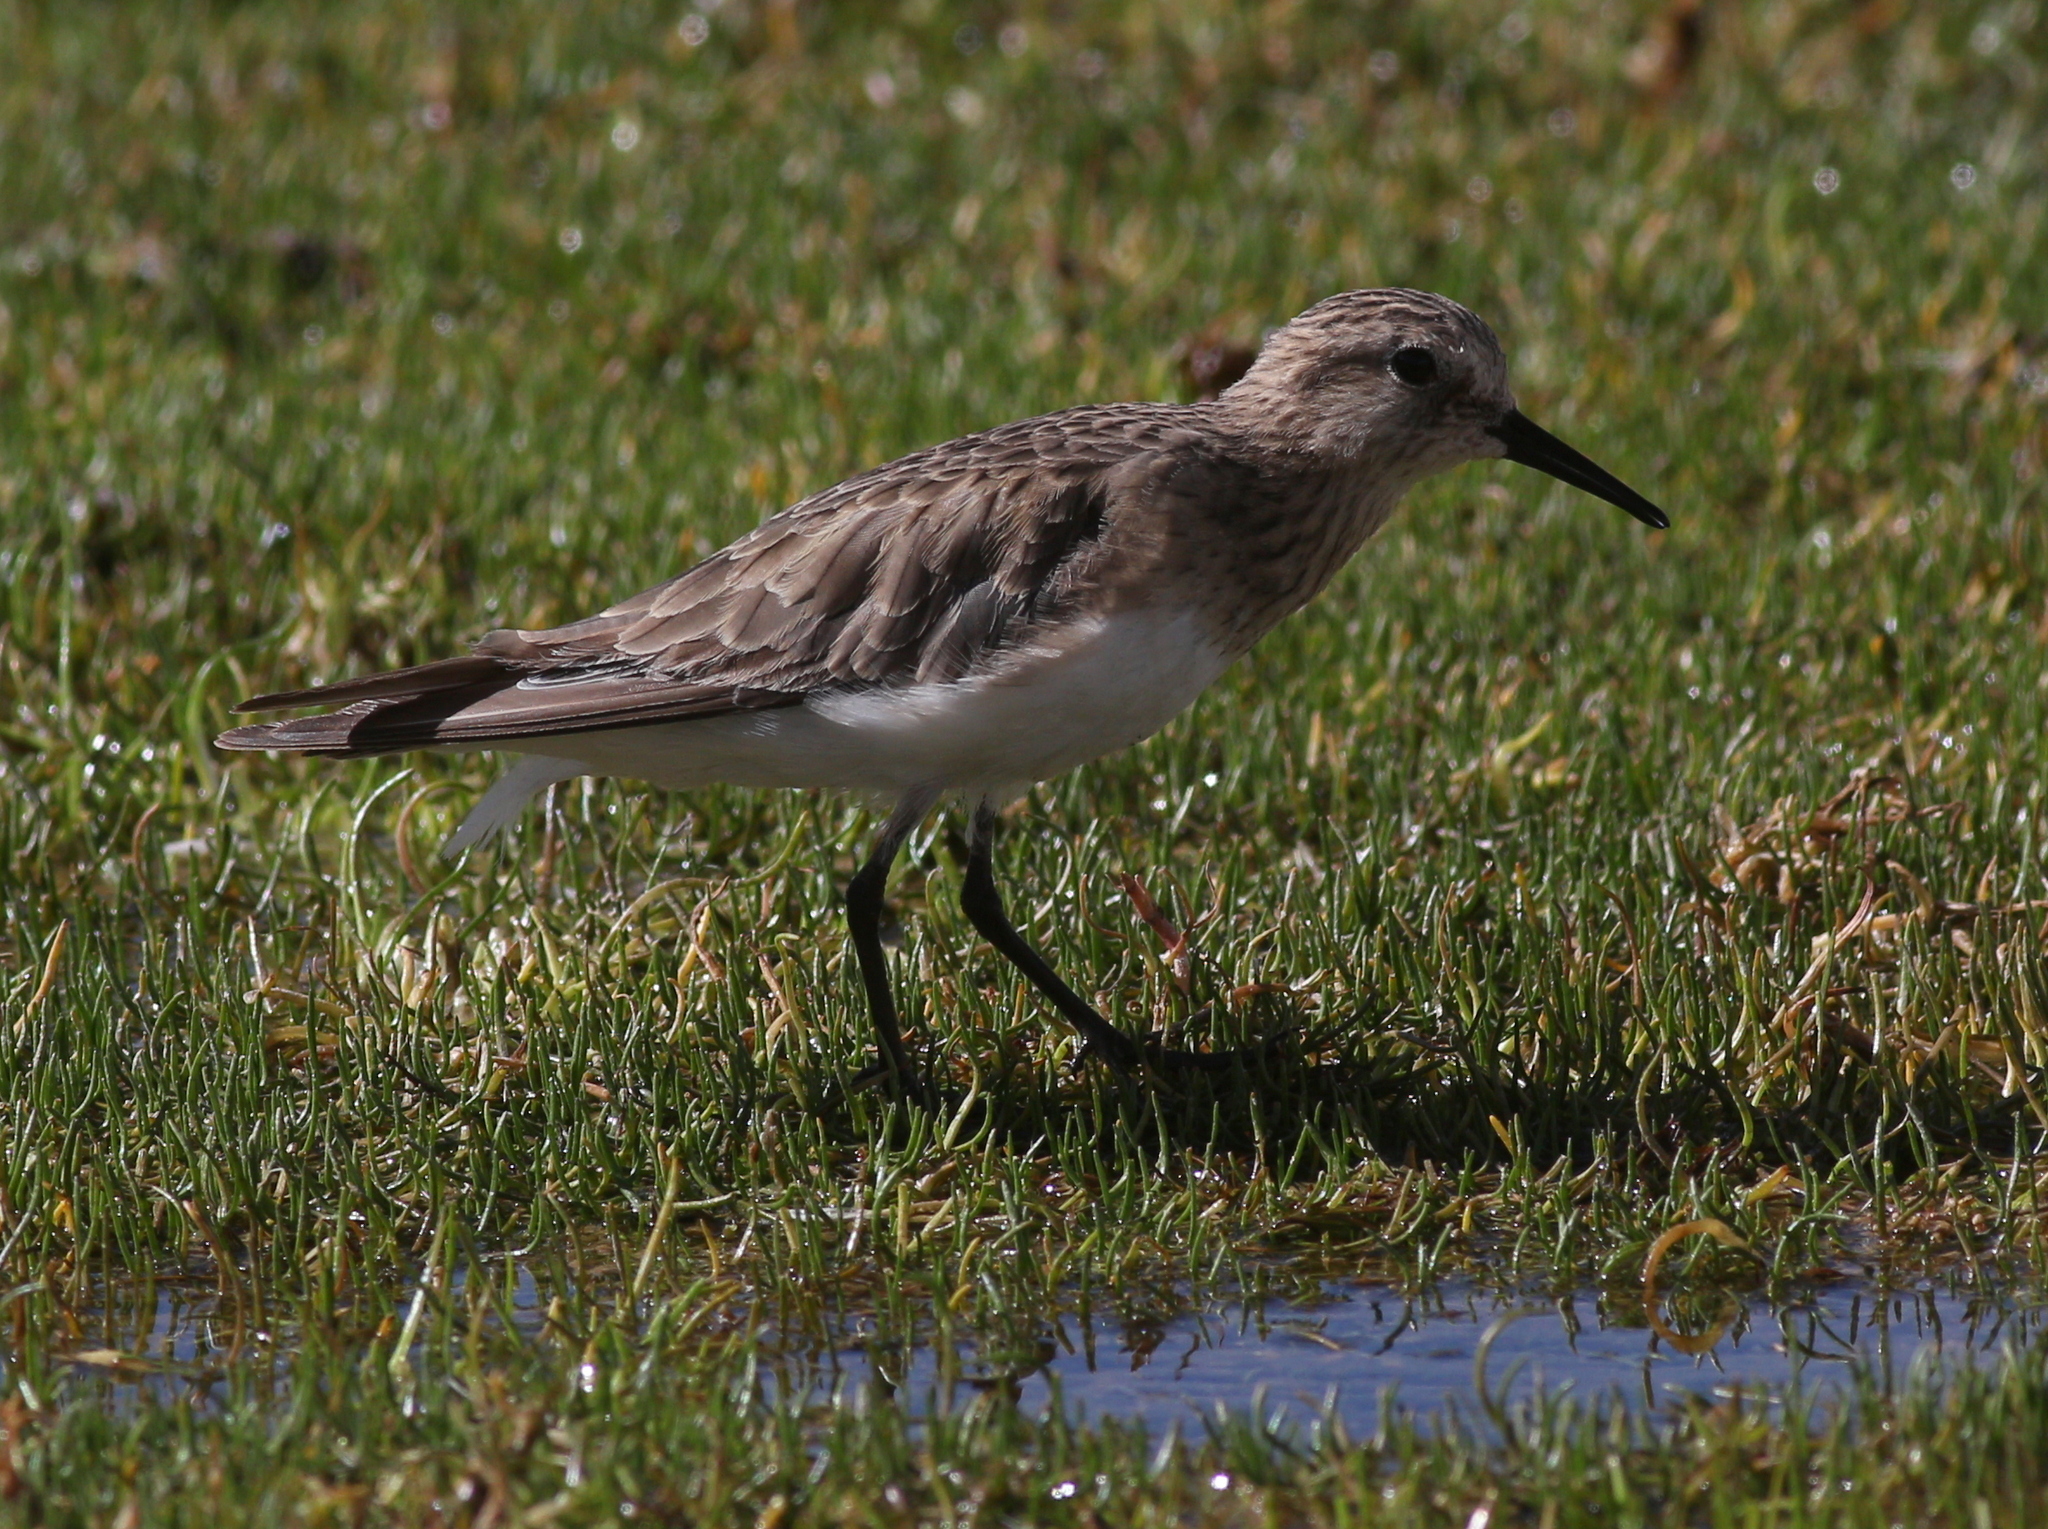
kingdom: Animalia
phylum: Chordata
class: Aves
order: Charadriiformes
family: Scolopacidae
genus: Calidris
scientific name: Calidris bairdii
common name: Baird's sandpiper
